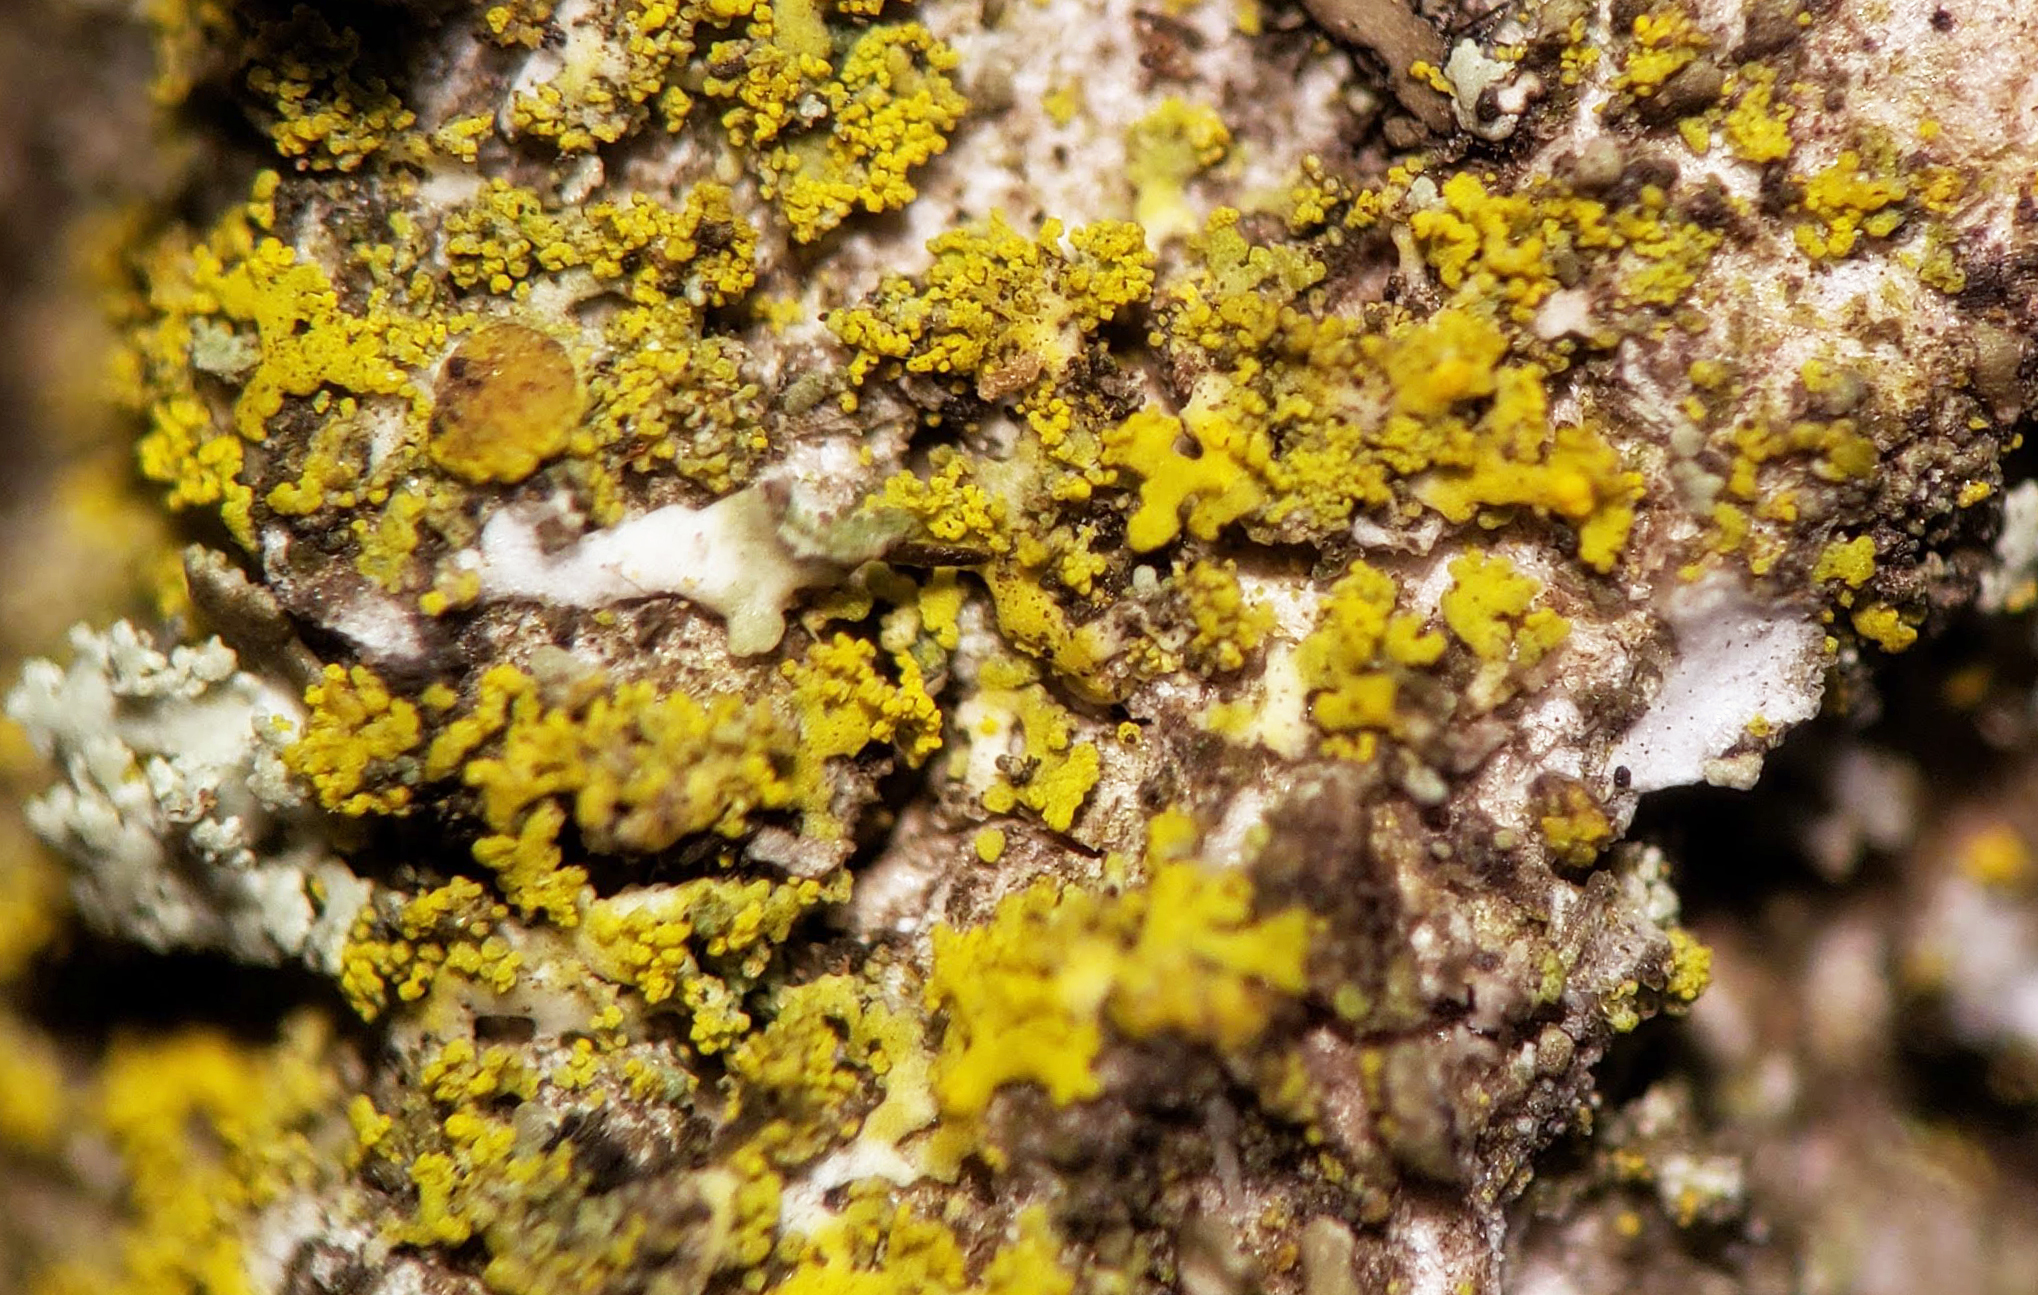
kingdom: Fungi
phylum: Ascomycota
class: Candelariomycetes
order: Candelariales
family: Candelariaceae
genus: Candelaria
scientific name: Candelaria concolor
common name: Candleflame lichen
